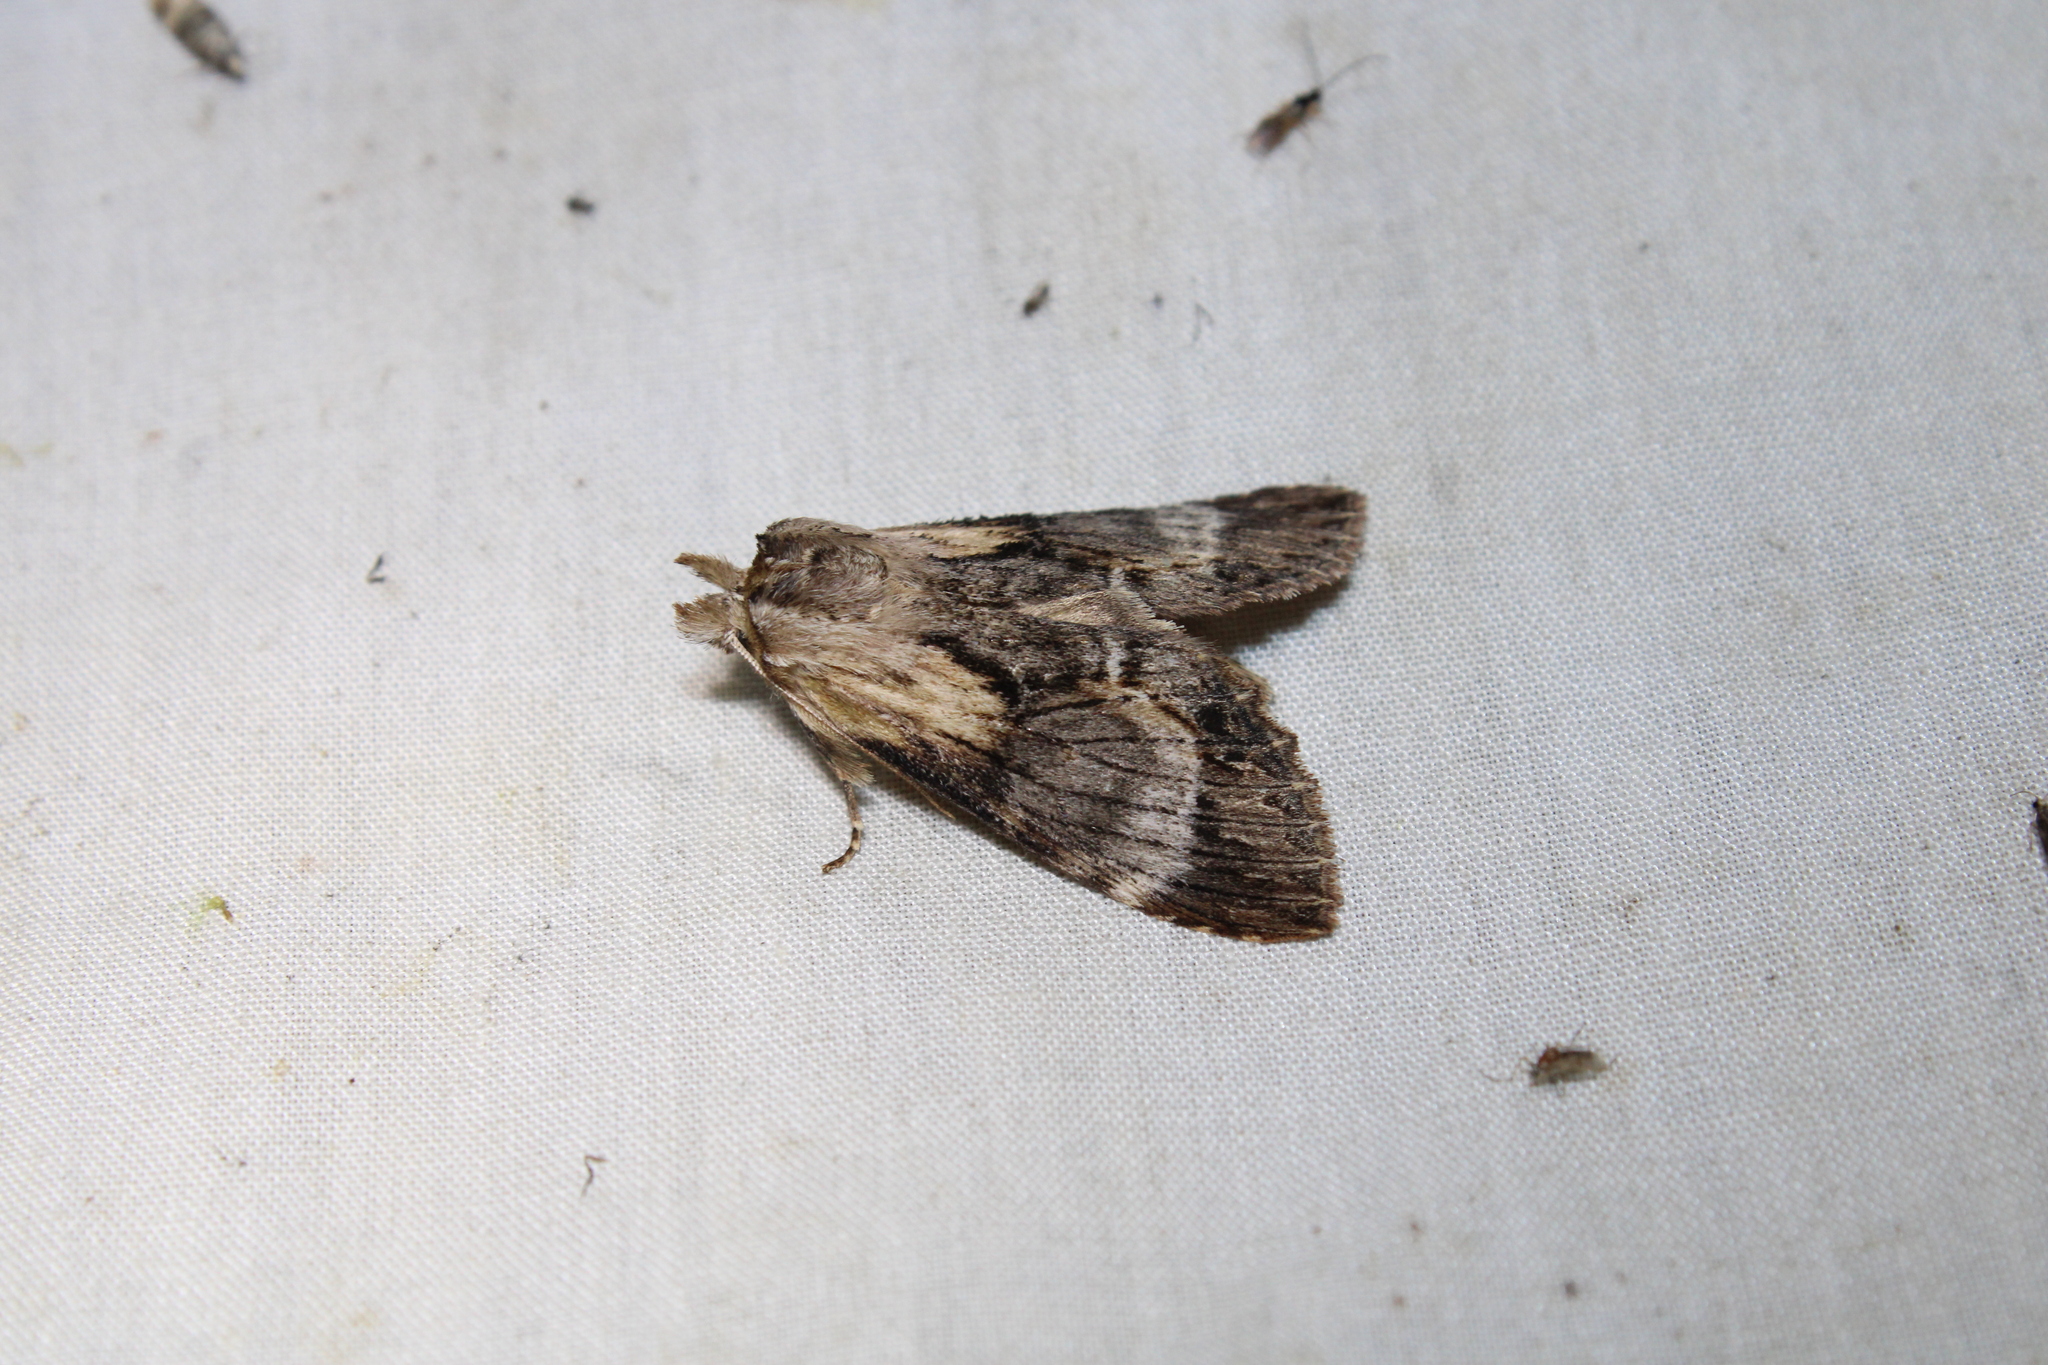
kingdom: Animalia
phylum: Arthropoda
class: Insecta
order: Lepidoptera
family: Notodontidae
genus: Dasylophia
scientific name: Dasylophia thyatiroides
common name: Gray-patched prominent
